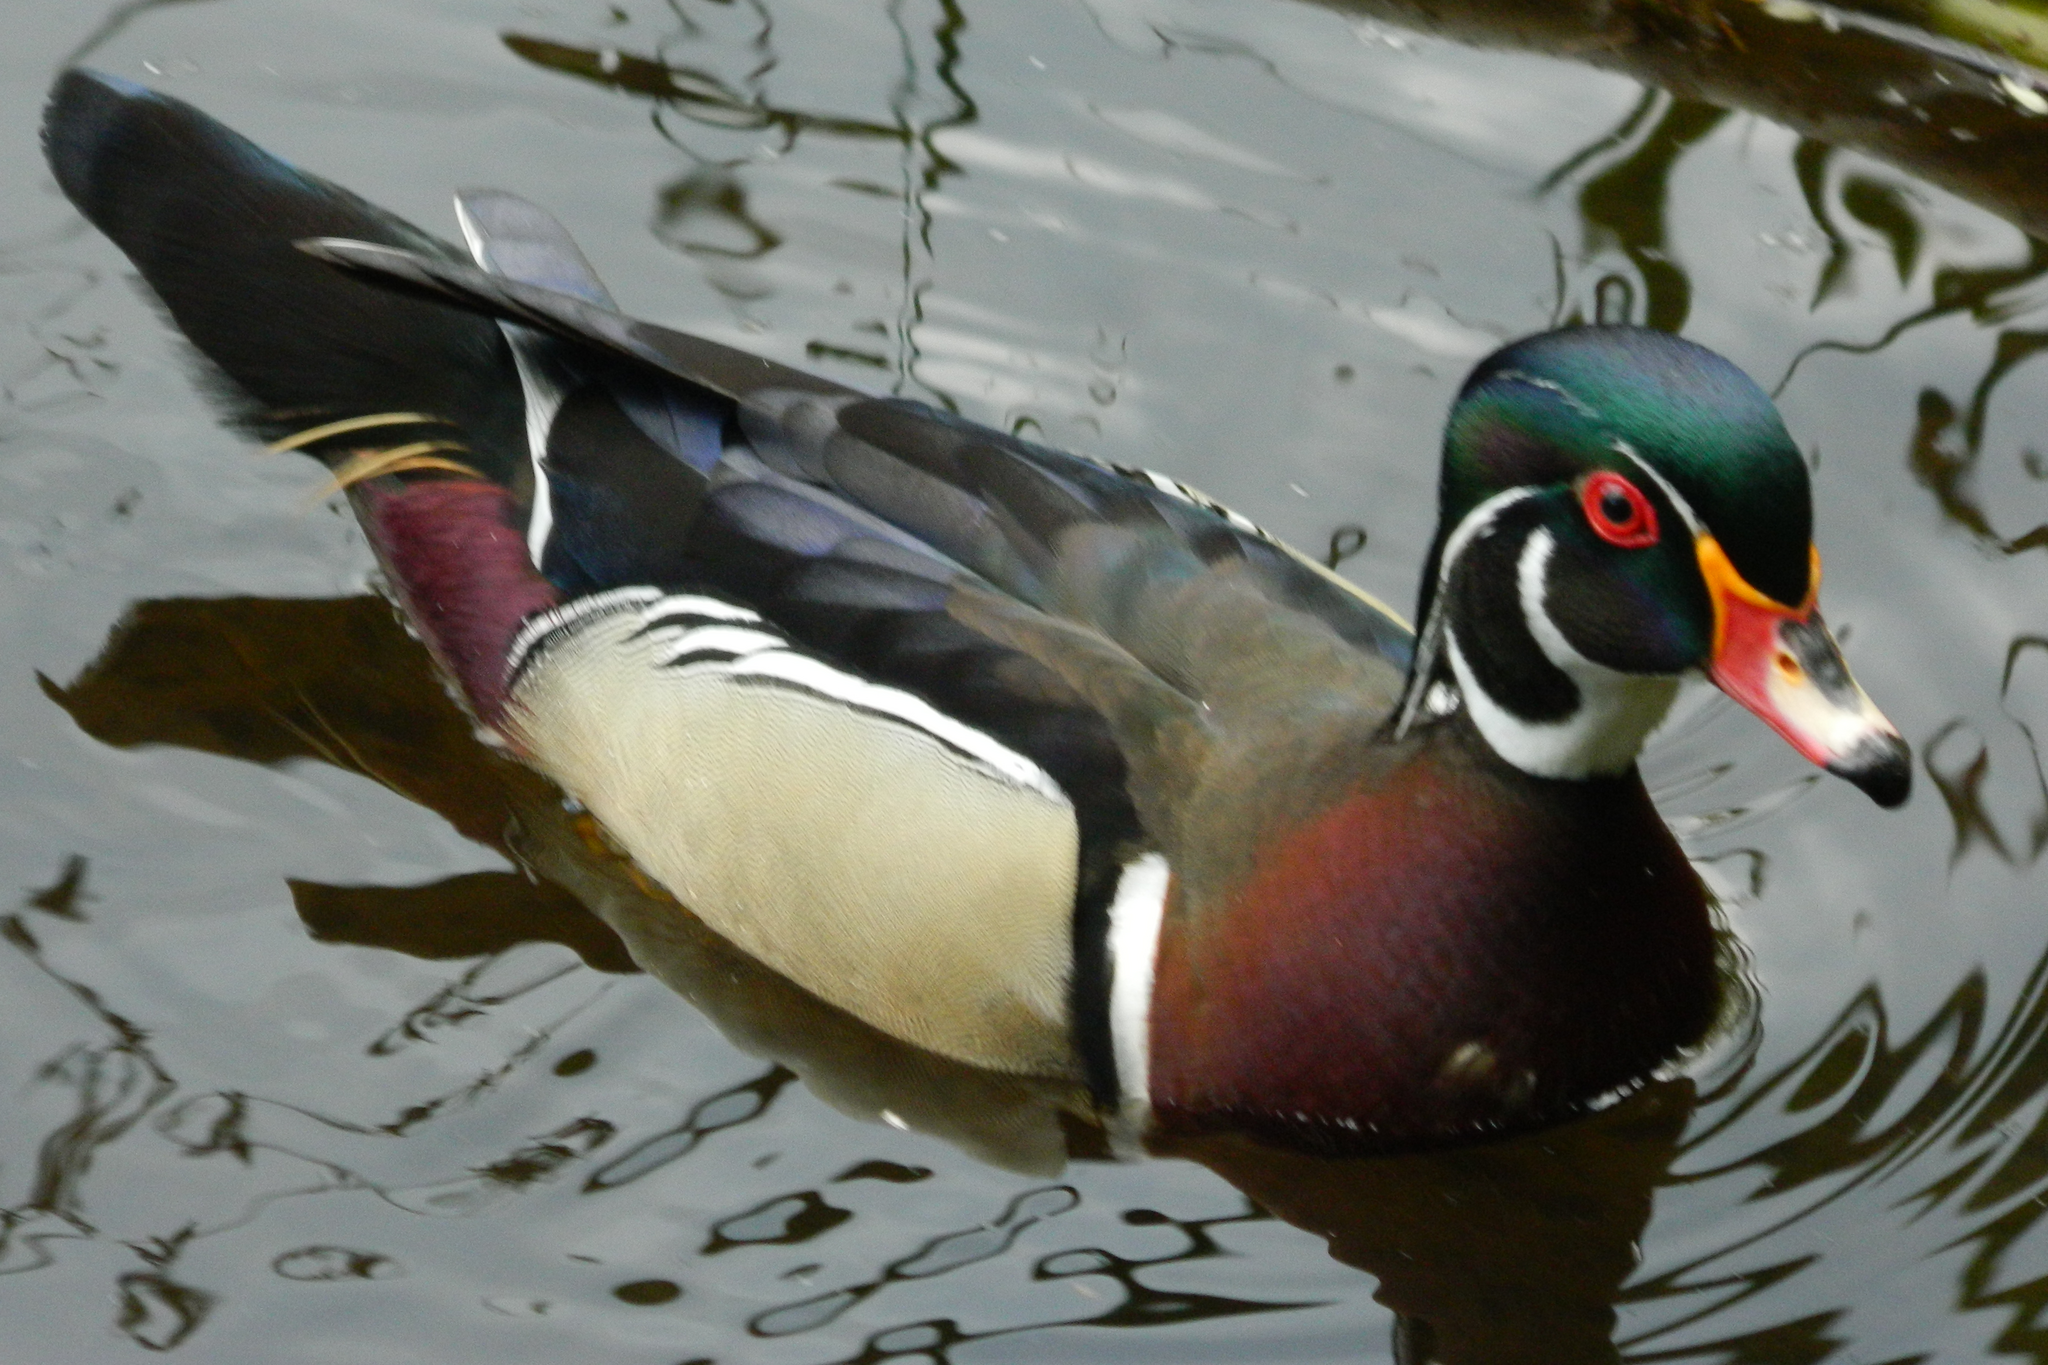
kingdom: Animalia
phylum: Chordata
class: Aves
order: Anseriformes
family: Anatidae
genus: Aix
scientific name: Aix sponsa
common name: Wood duck
